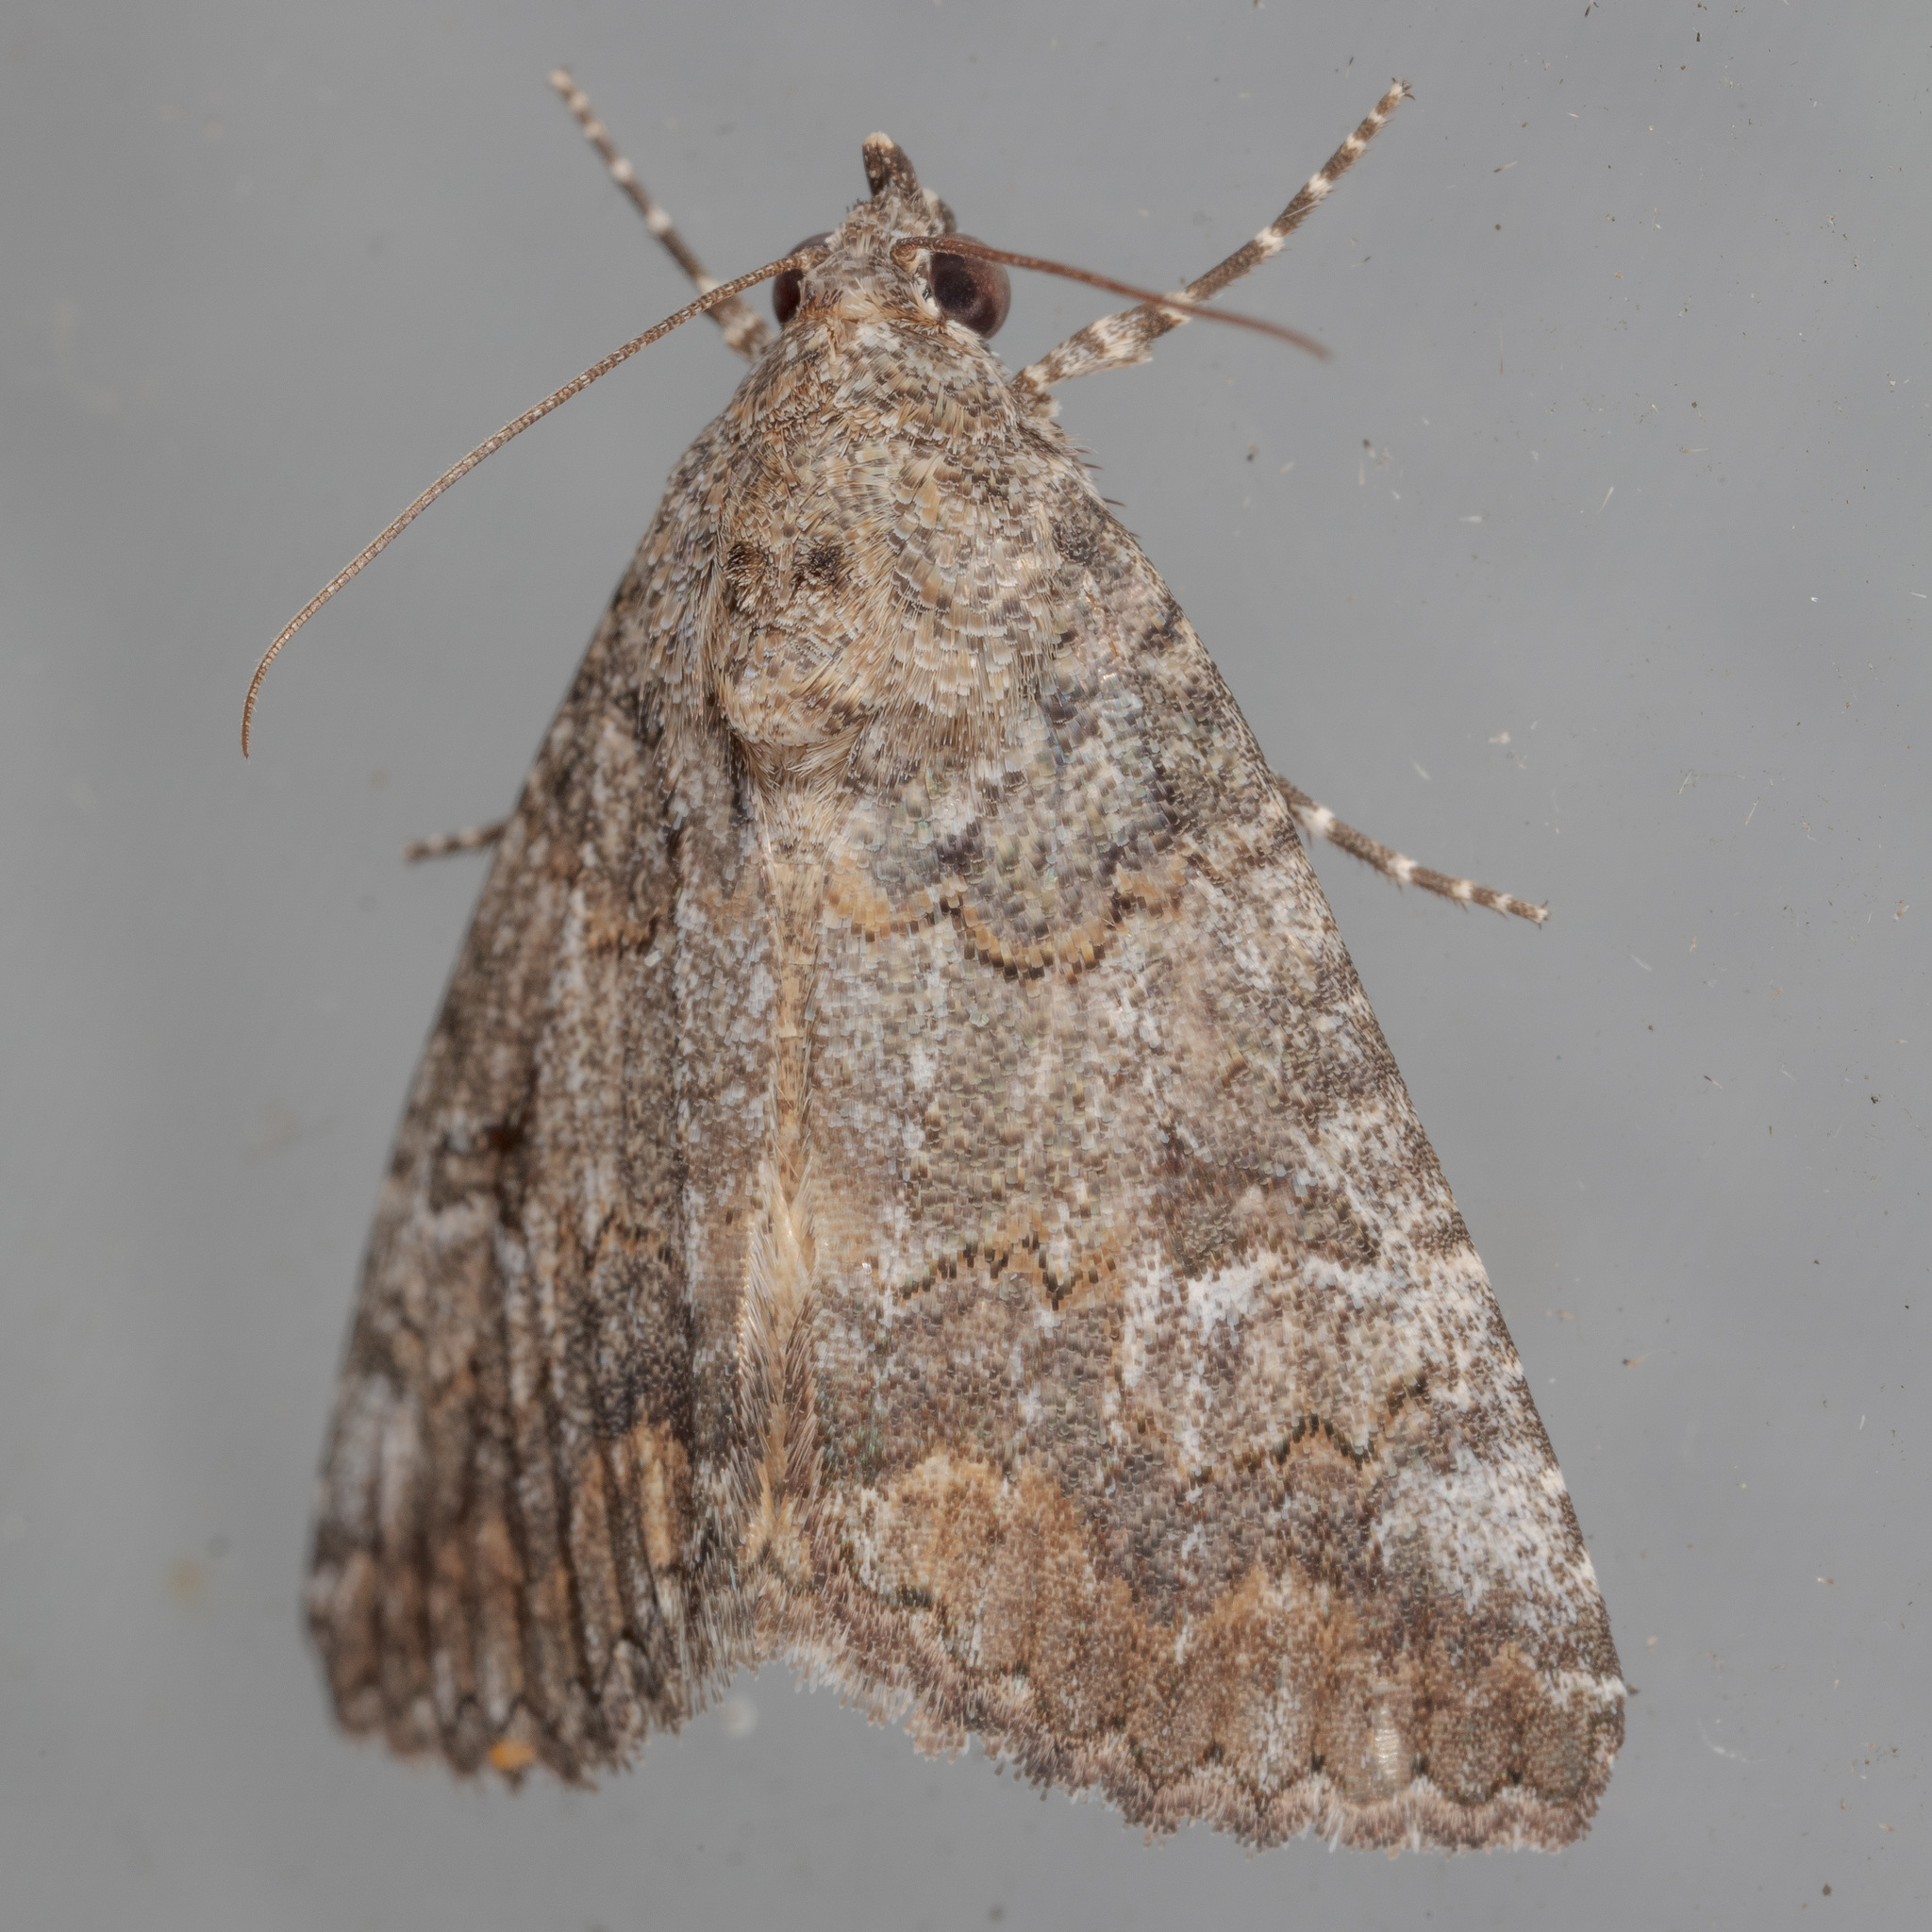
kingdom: Animalia
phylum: Arthropoda
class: Insecta
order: Lepidoptera
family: Erebidae
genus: Eubolina
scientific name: Eubolina impartialis
